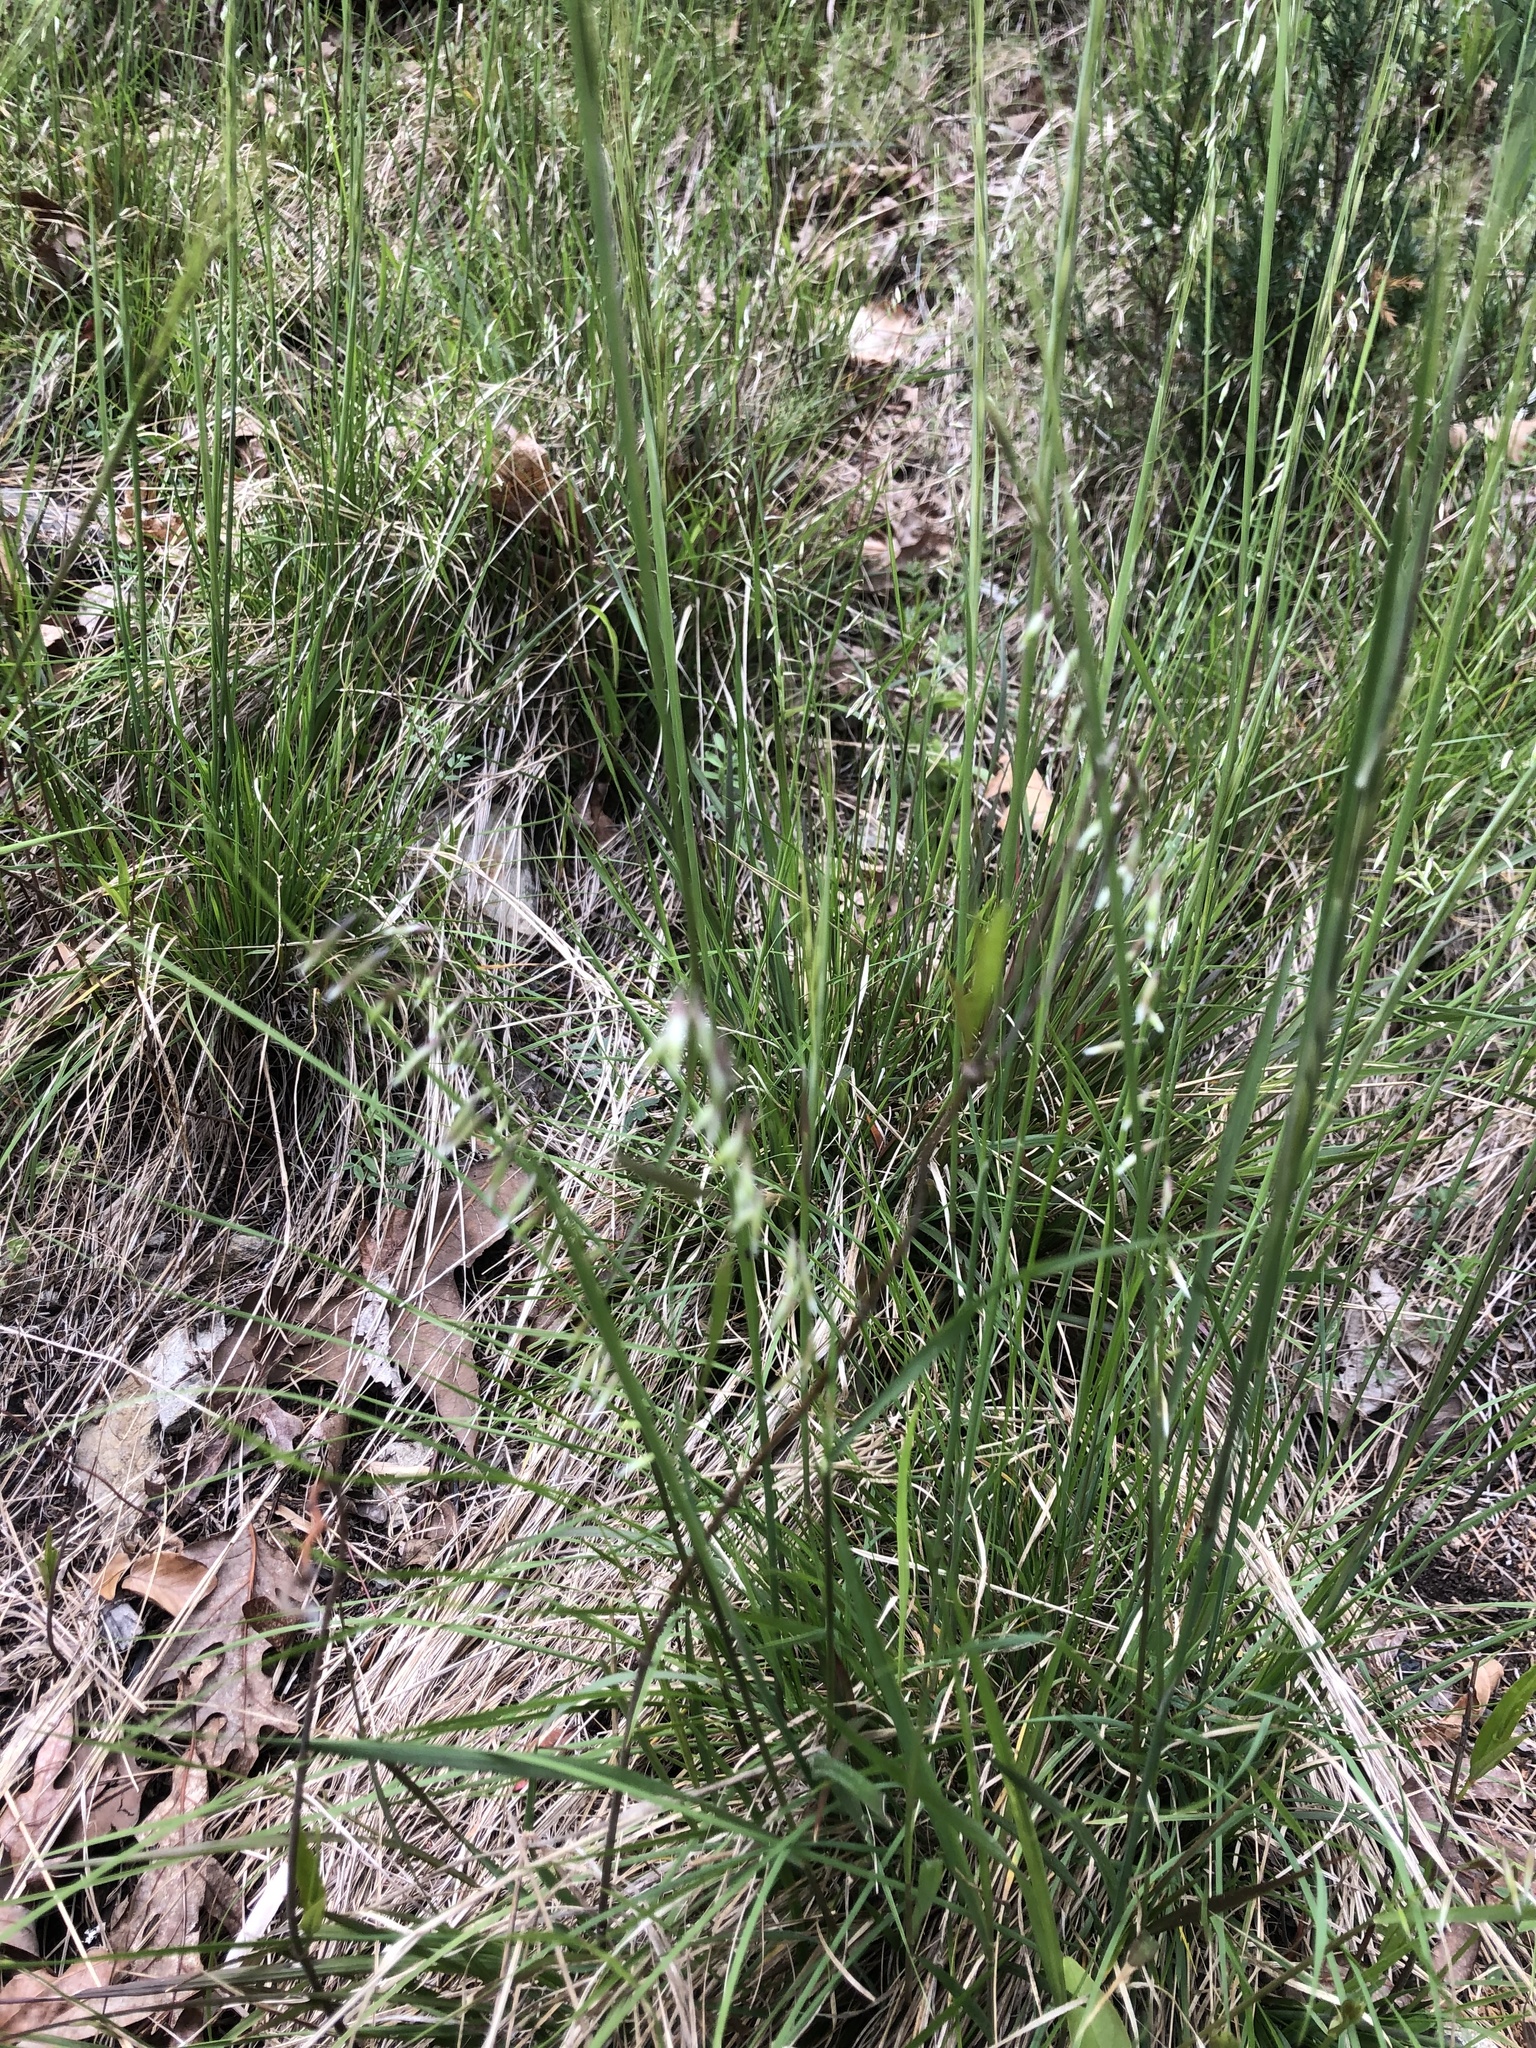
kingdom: Plantae
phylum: Tracheophyta
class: Liliopsida
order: Poales
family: Poaceae
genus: Melica
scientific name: Melica mutica
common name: Two-flower melic
